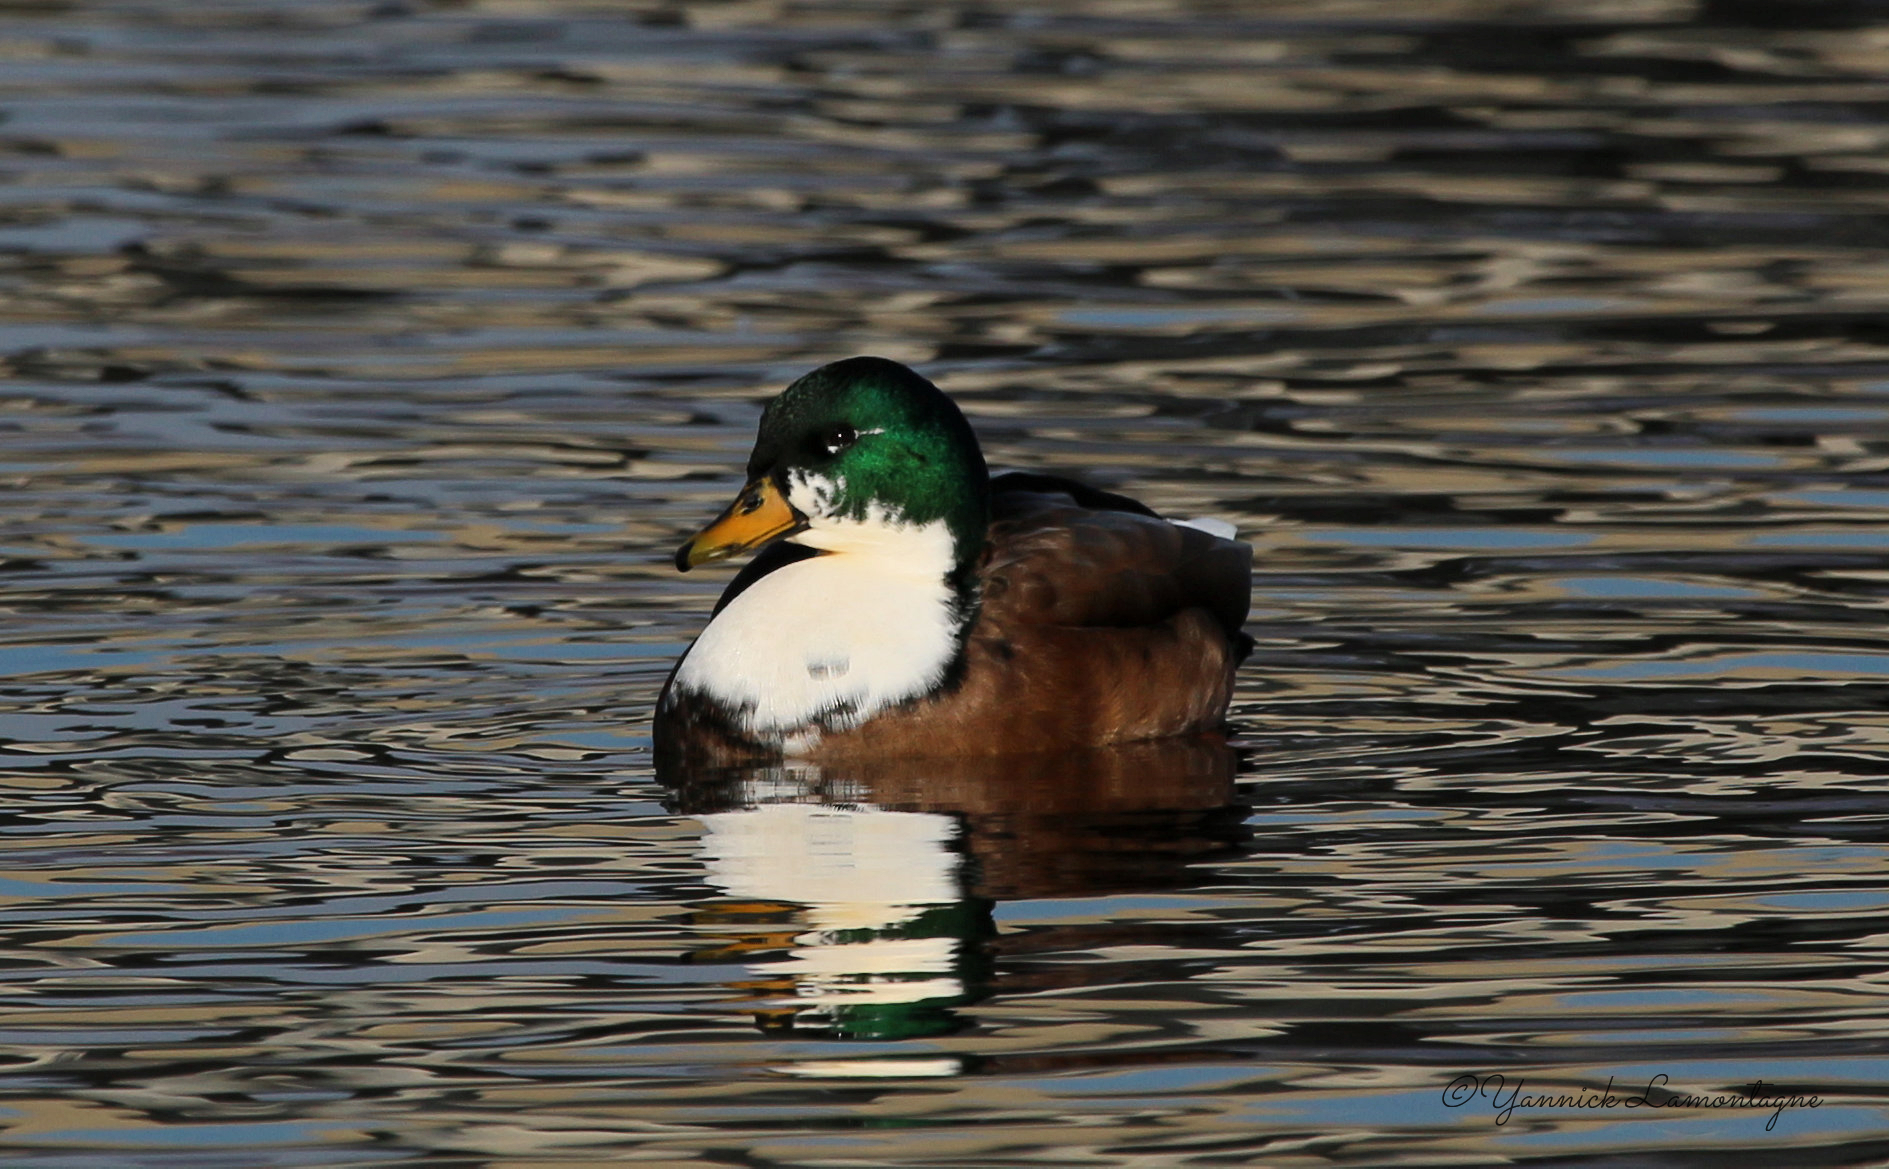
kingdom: Animalia
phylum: Chordata
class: Aves
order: Anseriformes
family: Anatidae
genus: Anas
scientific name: Anas platyrhynchos
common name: Mallard
